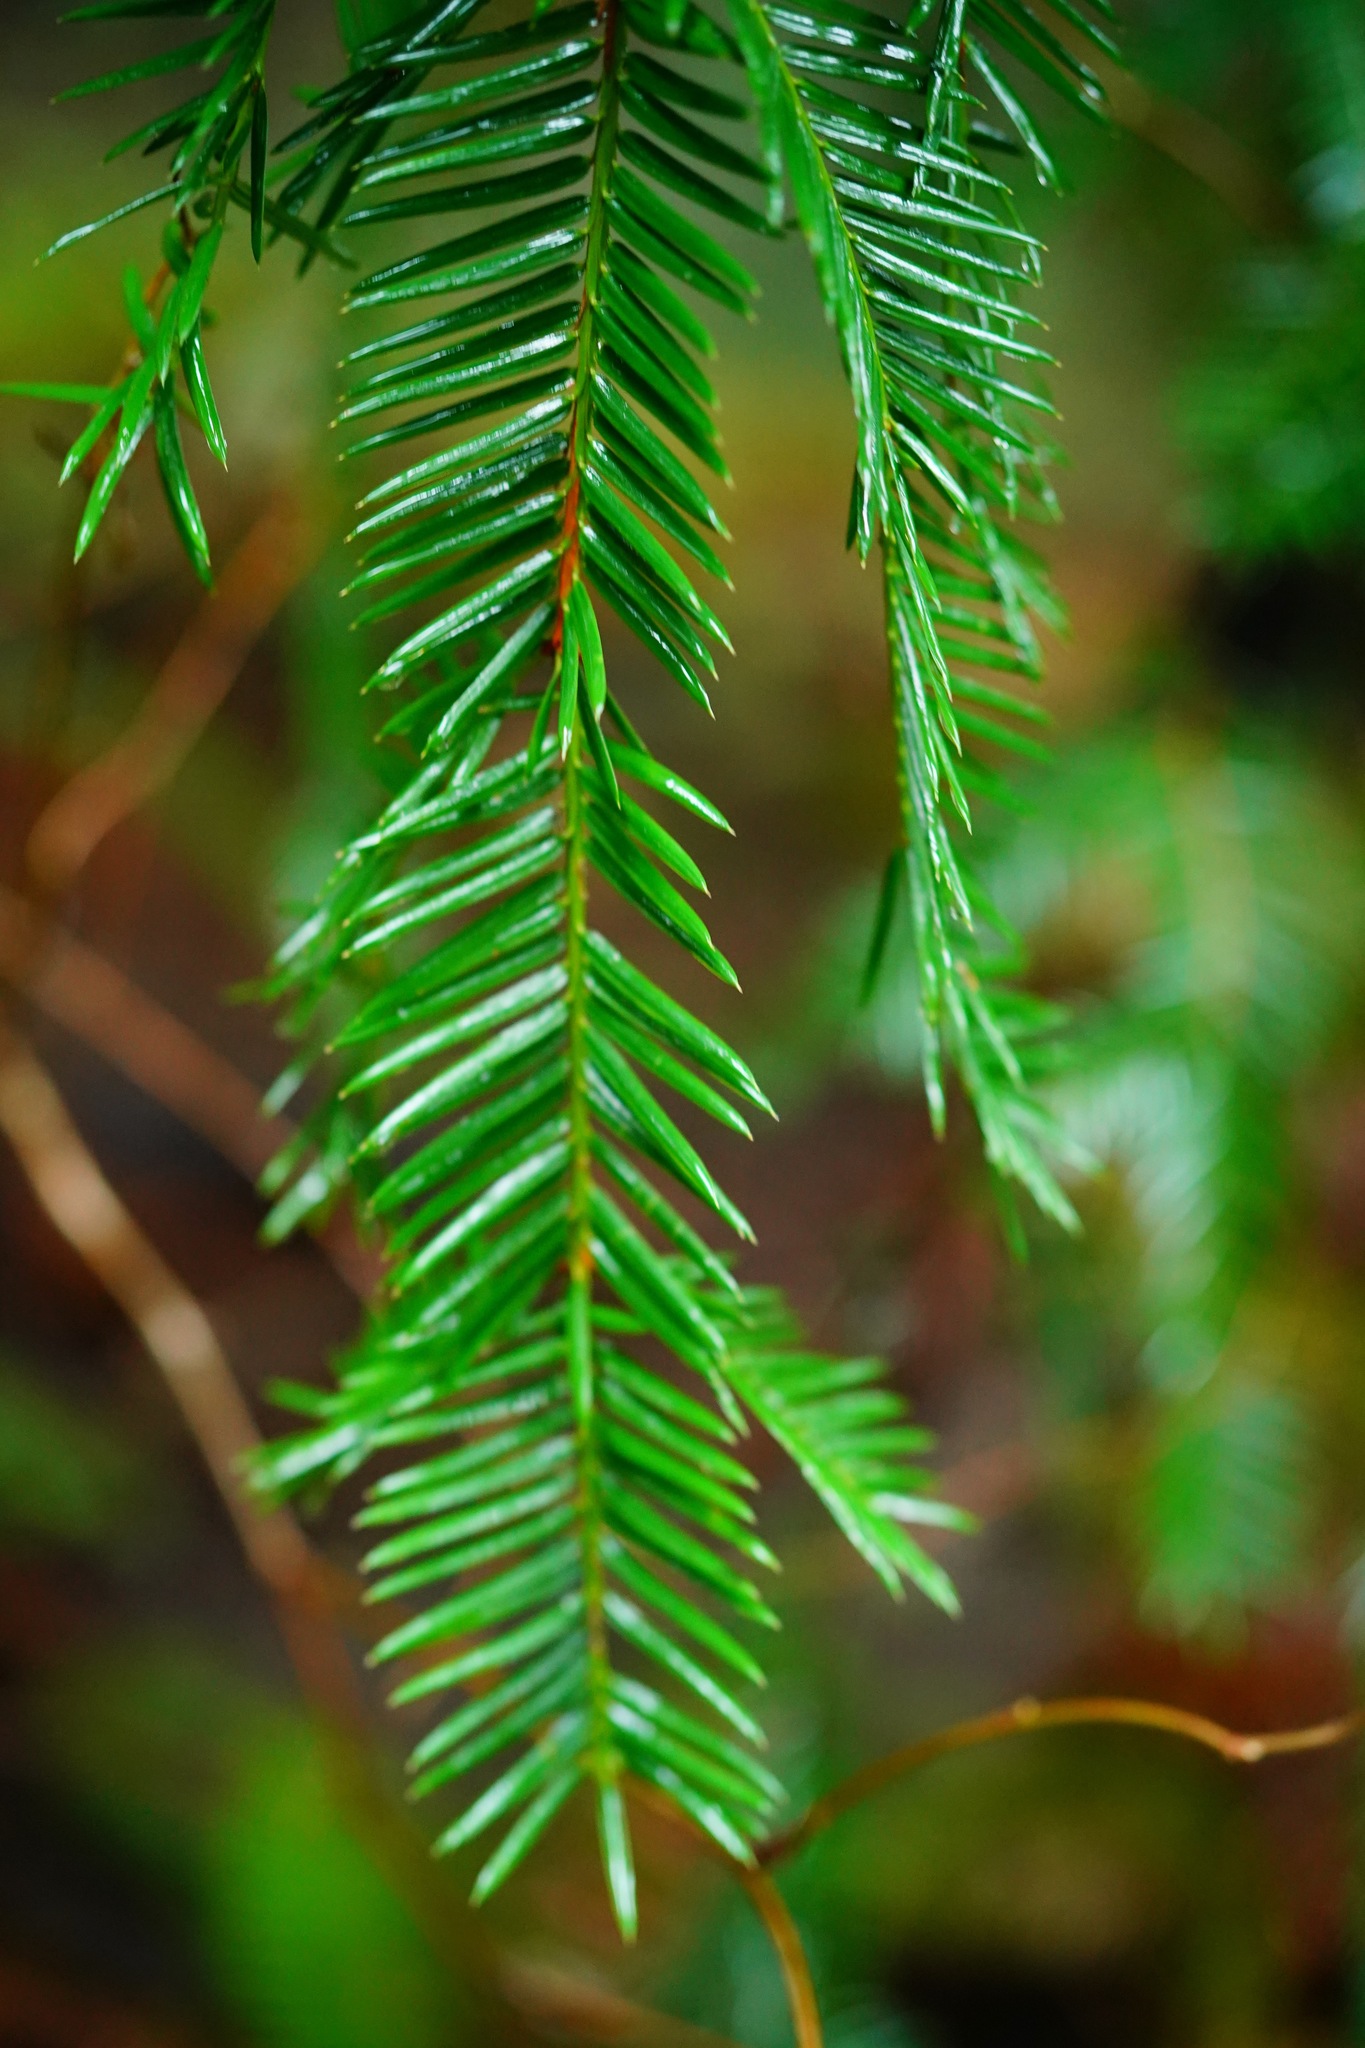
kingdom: Plantae
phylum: Tracheophyta
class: Pinopsida
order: Pinales
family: Taxaceae
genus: Torreya
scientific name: Torreya californica
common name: California torreya
